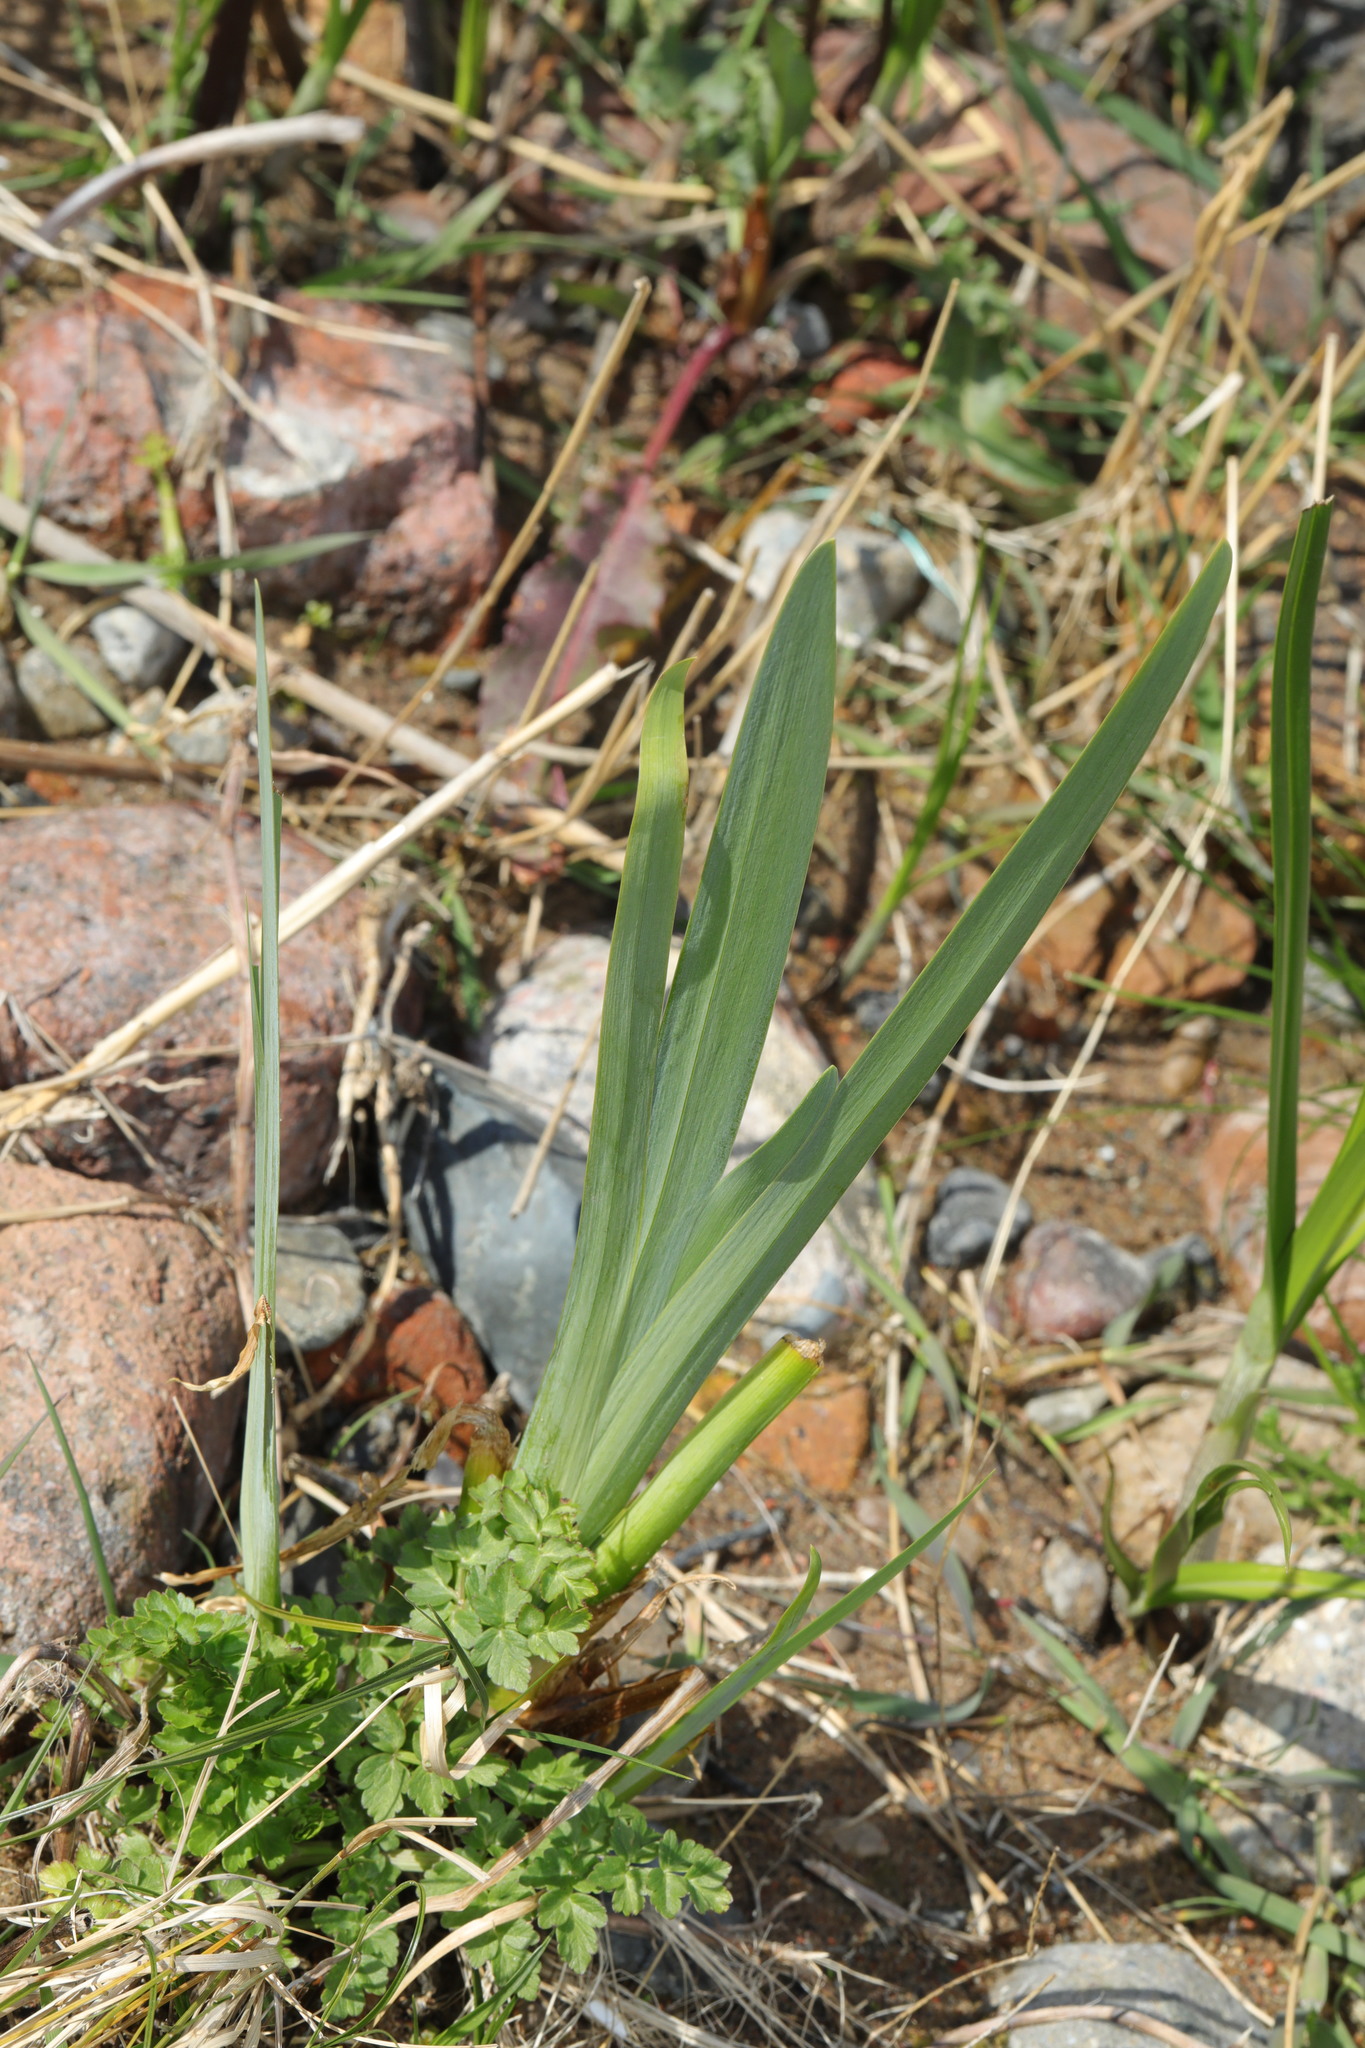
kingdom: Plantae
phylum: Tracheophyta
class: Liliopsida
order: Asparagales
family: Iridaceae
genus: Iris
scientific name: Iris pseudacorus
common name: Yellow flag
